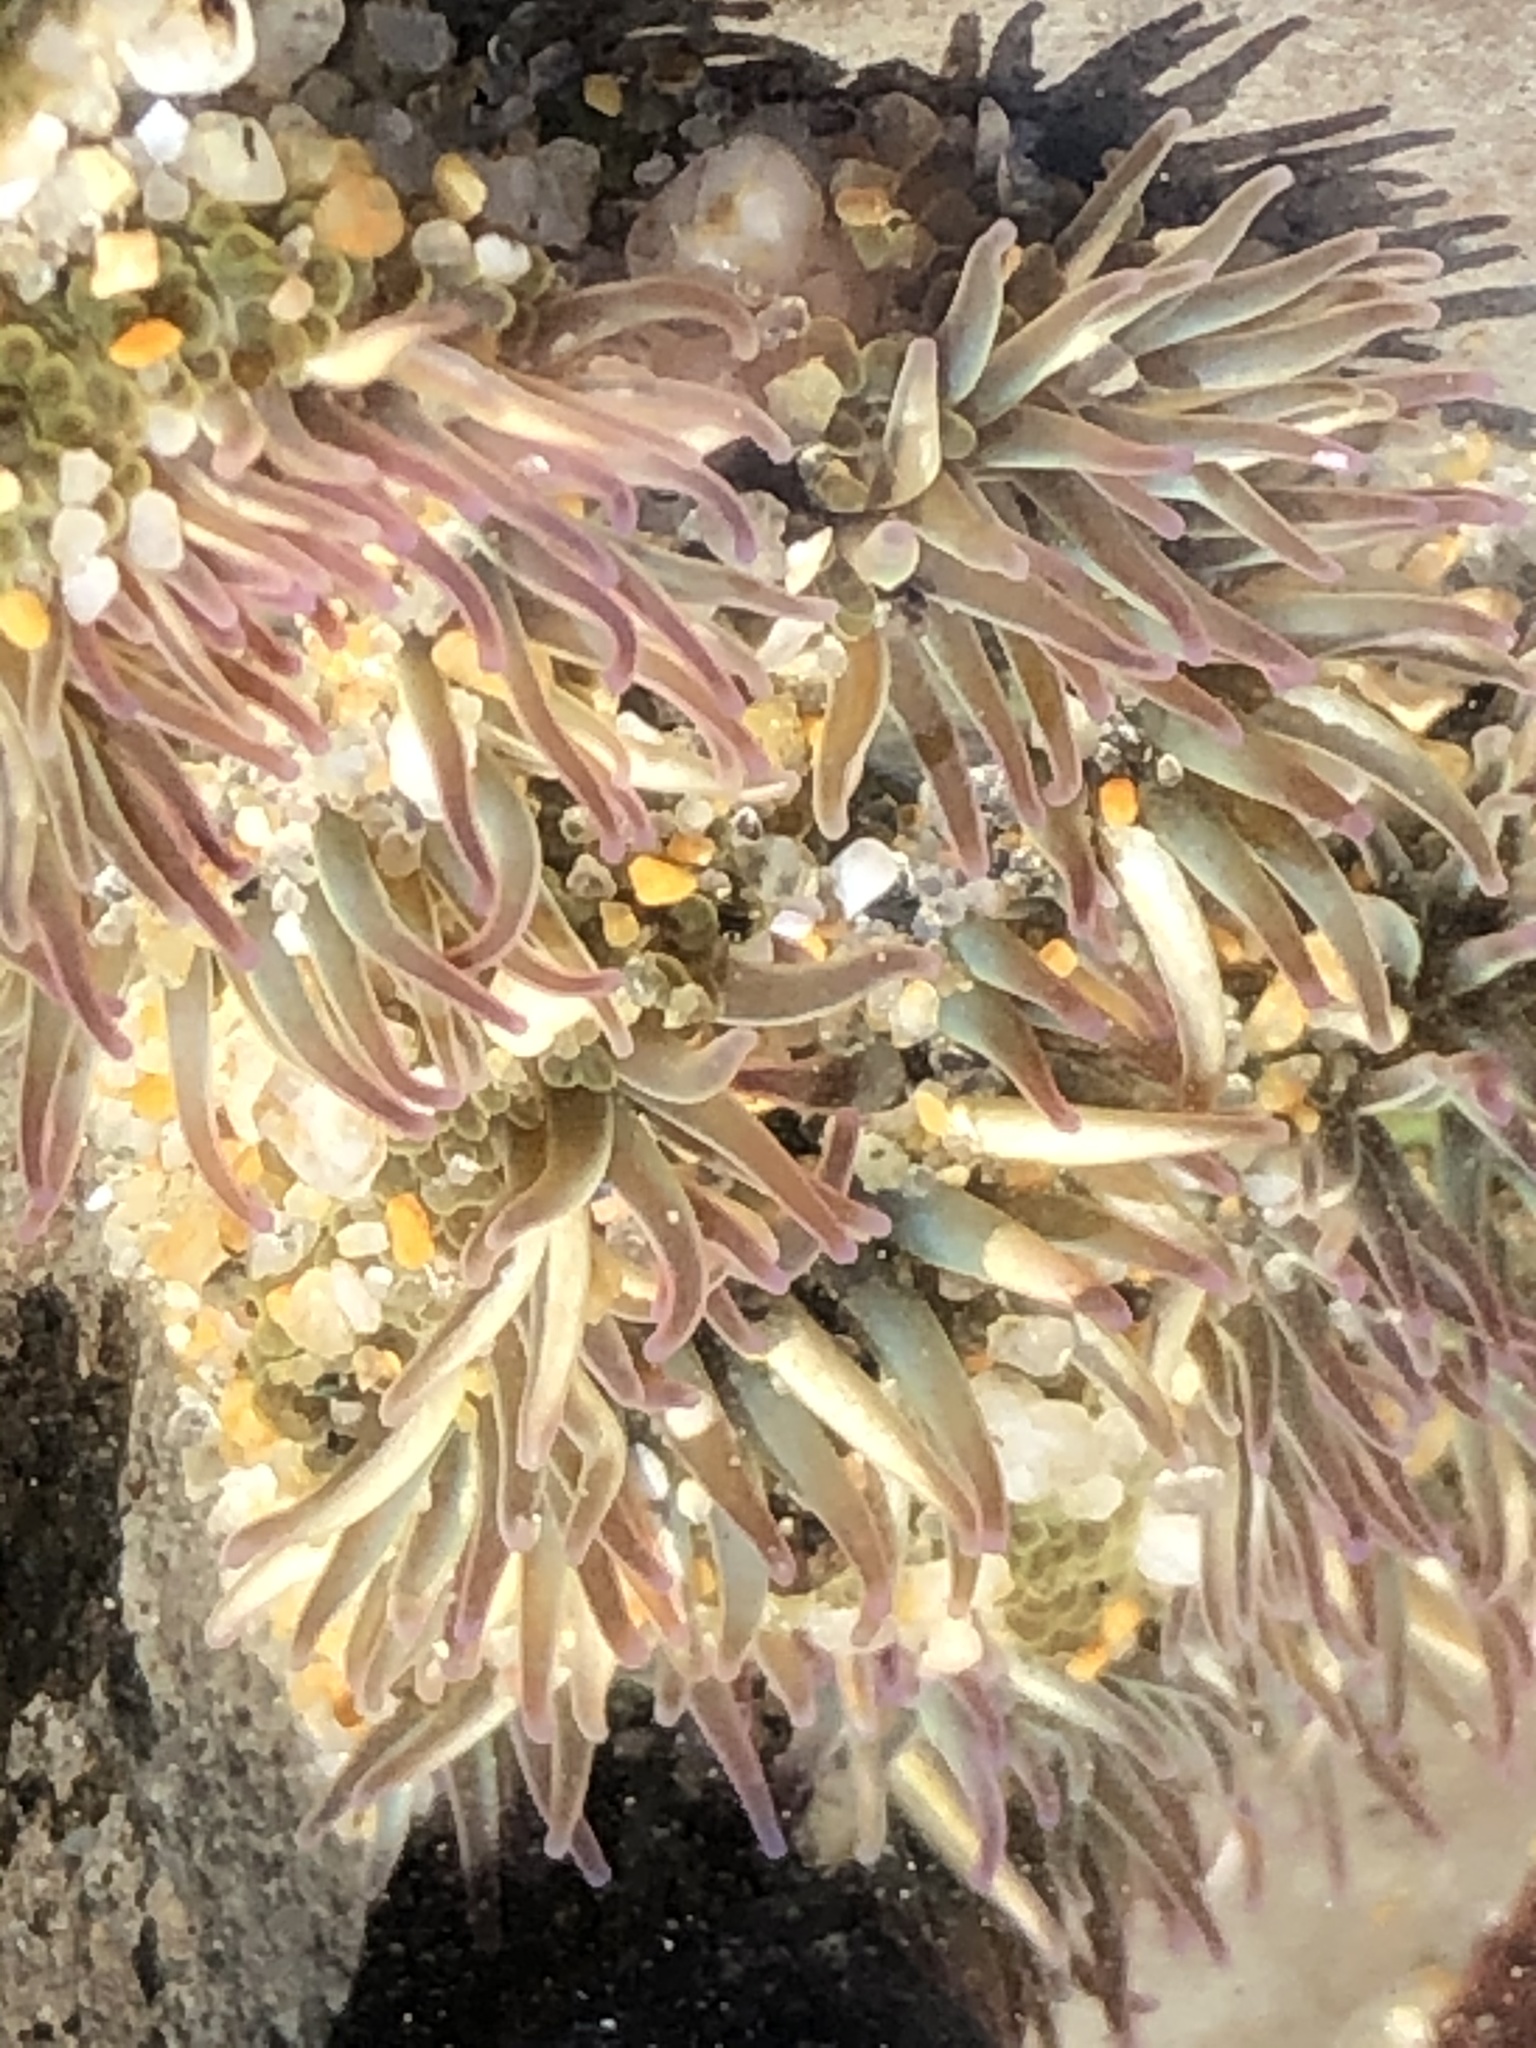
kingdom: Animalia
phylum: Cnidaria
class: Anthozoa
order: Actiniaria
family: Actiniidae
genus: Anthopleura
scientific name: Anthopleura elegantissima
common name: Clonal anemone
